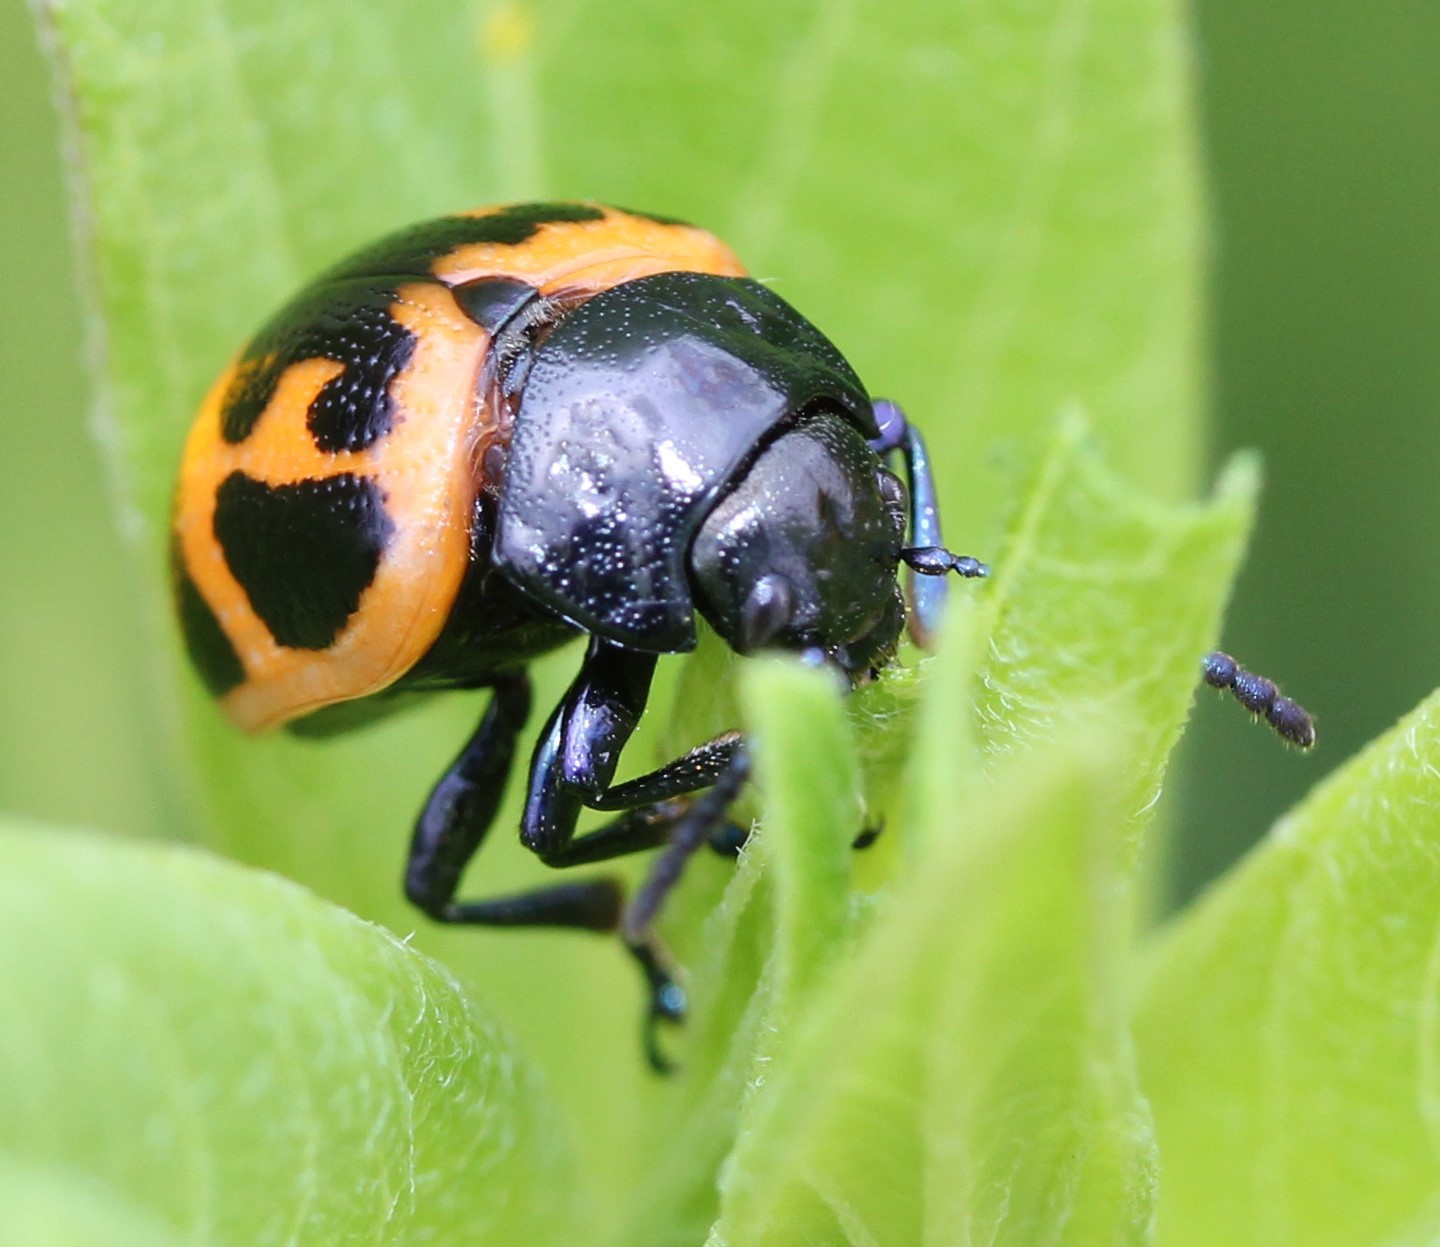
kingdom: Animalia
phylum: Arthropoda
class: Insecta
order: Coleoptera
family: Chrysomelidae
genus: Labidomera
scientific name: Labidomera clivicollis
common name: Swamp milkweed leaf beetle
